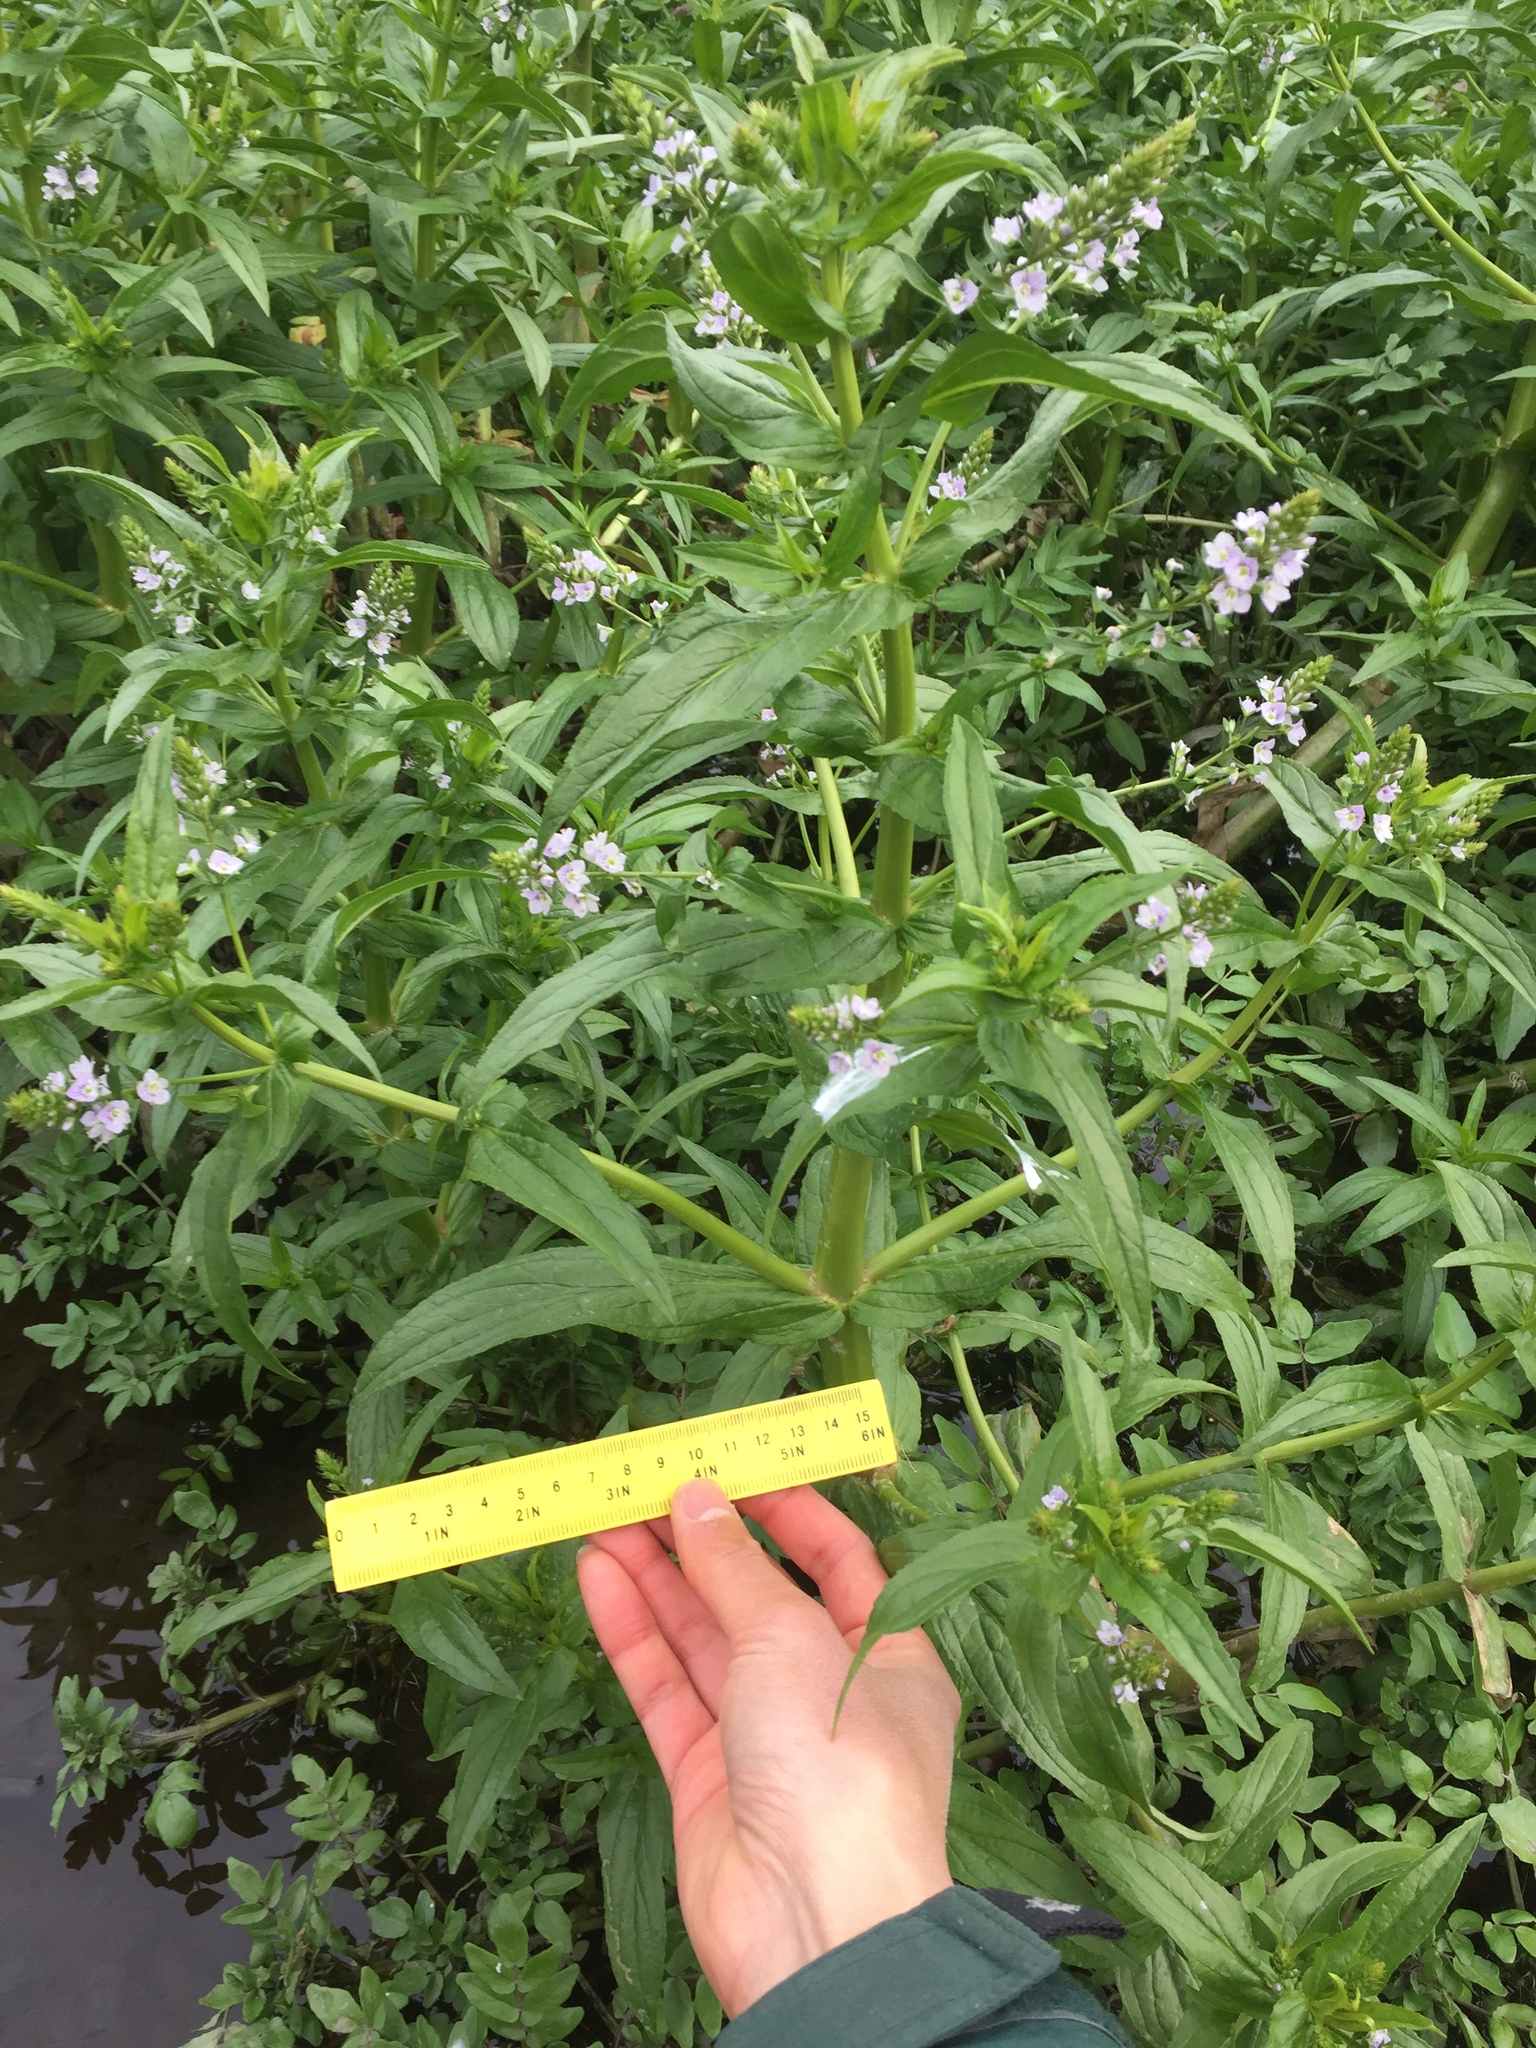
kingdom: Plantae
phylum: Tracheophyta
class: Magnoliopsida
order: Lamiales
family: Plantaginaceae
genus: Veronica
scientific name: Veronica anagallis-aquatica
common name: Water speedwell
